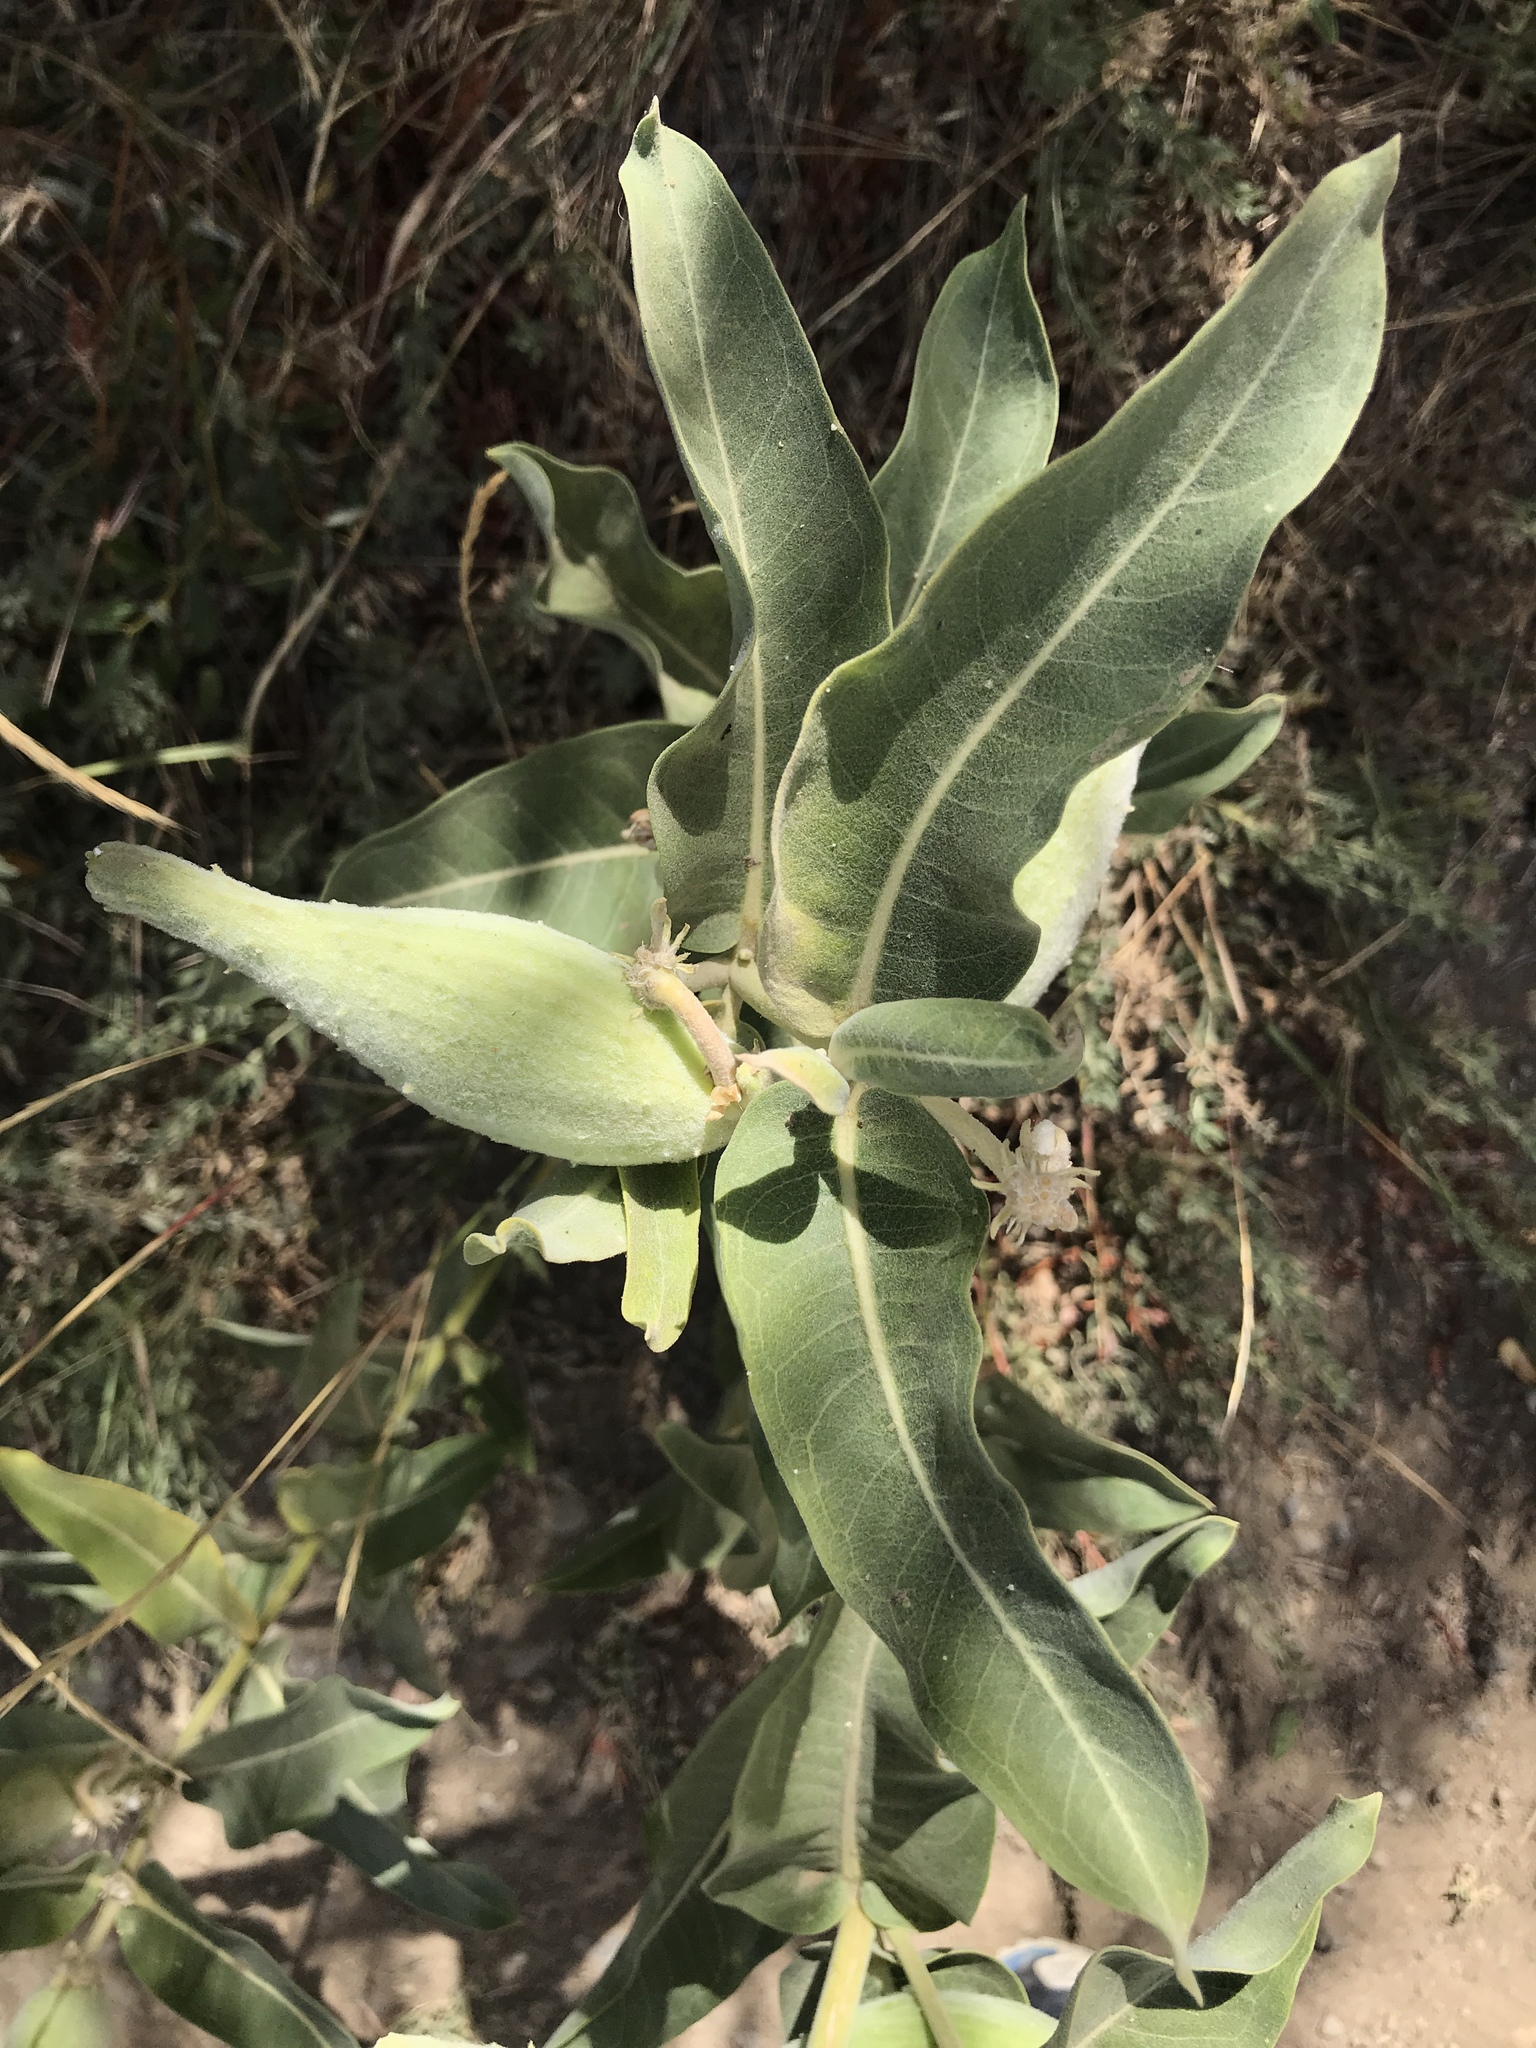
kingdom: Plantae
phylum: Tracheophyta
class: Magnoliopsida
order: Gentianales
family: Apocynaceae
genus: Asclepias
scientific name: Asclepias speciosa
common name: Showy milkweed
